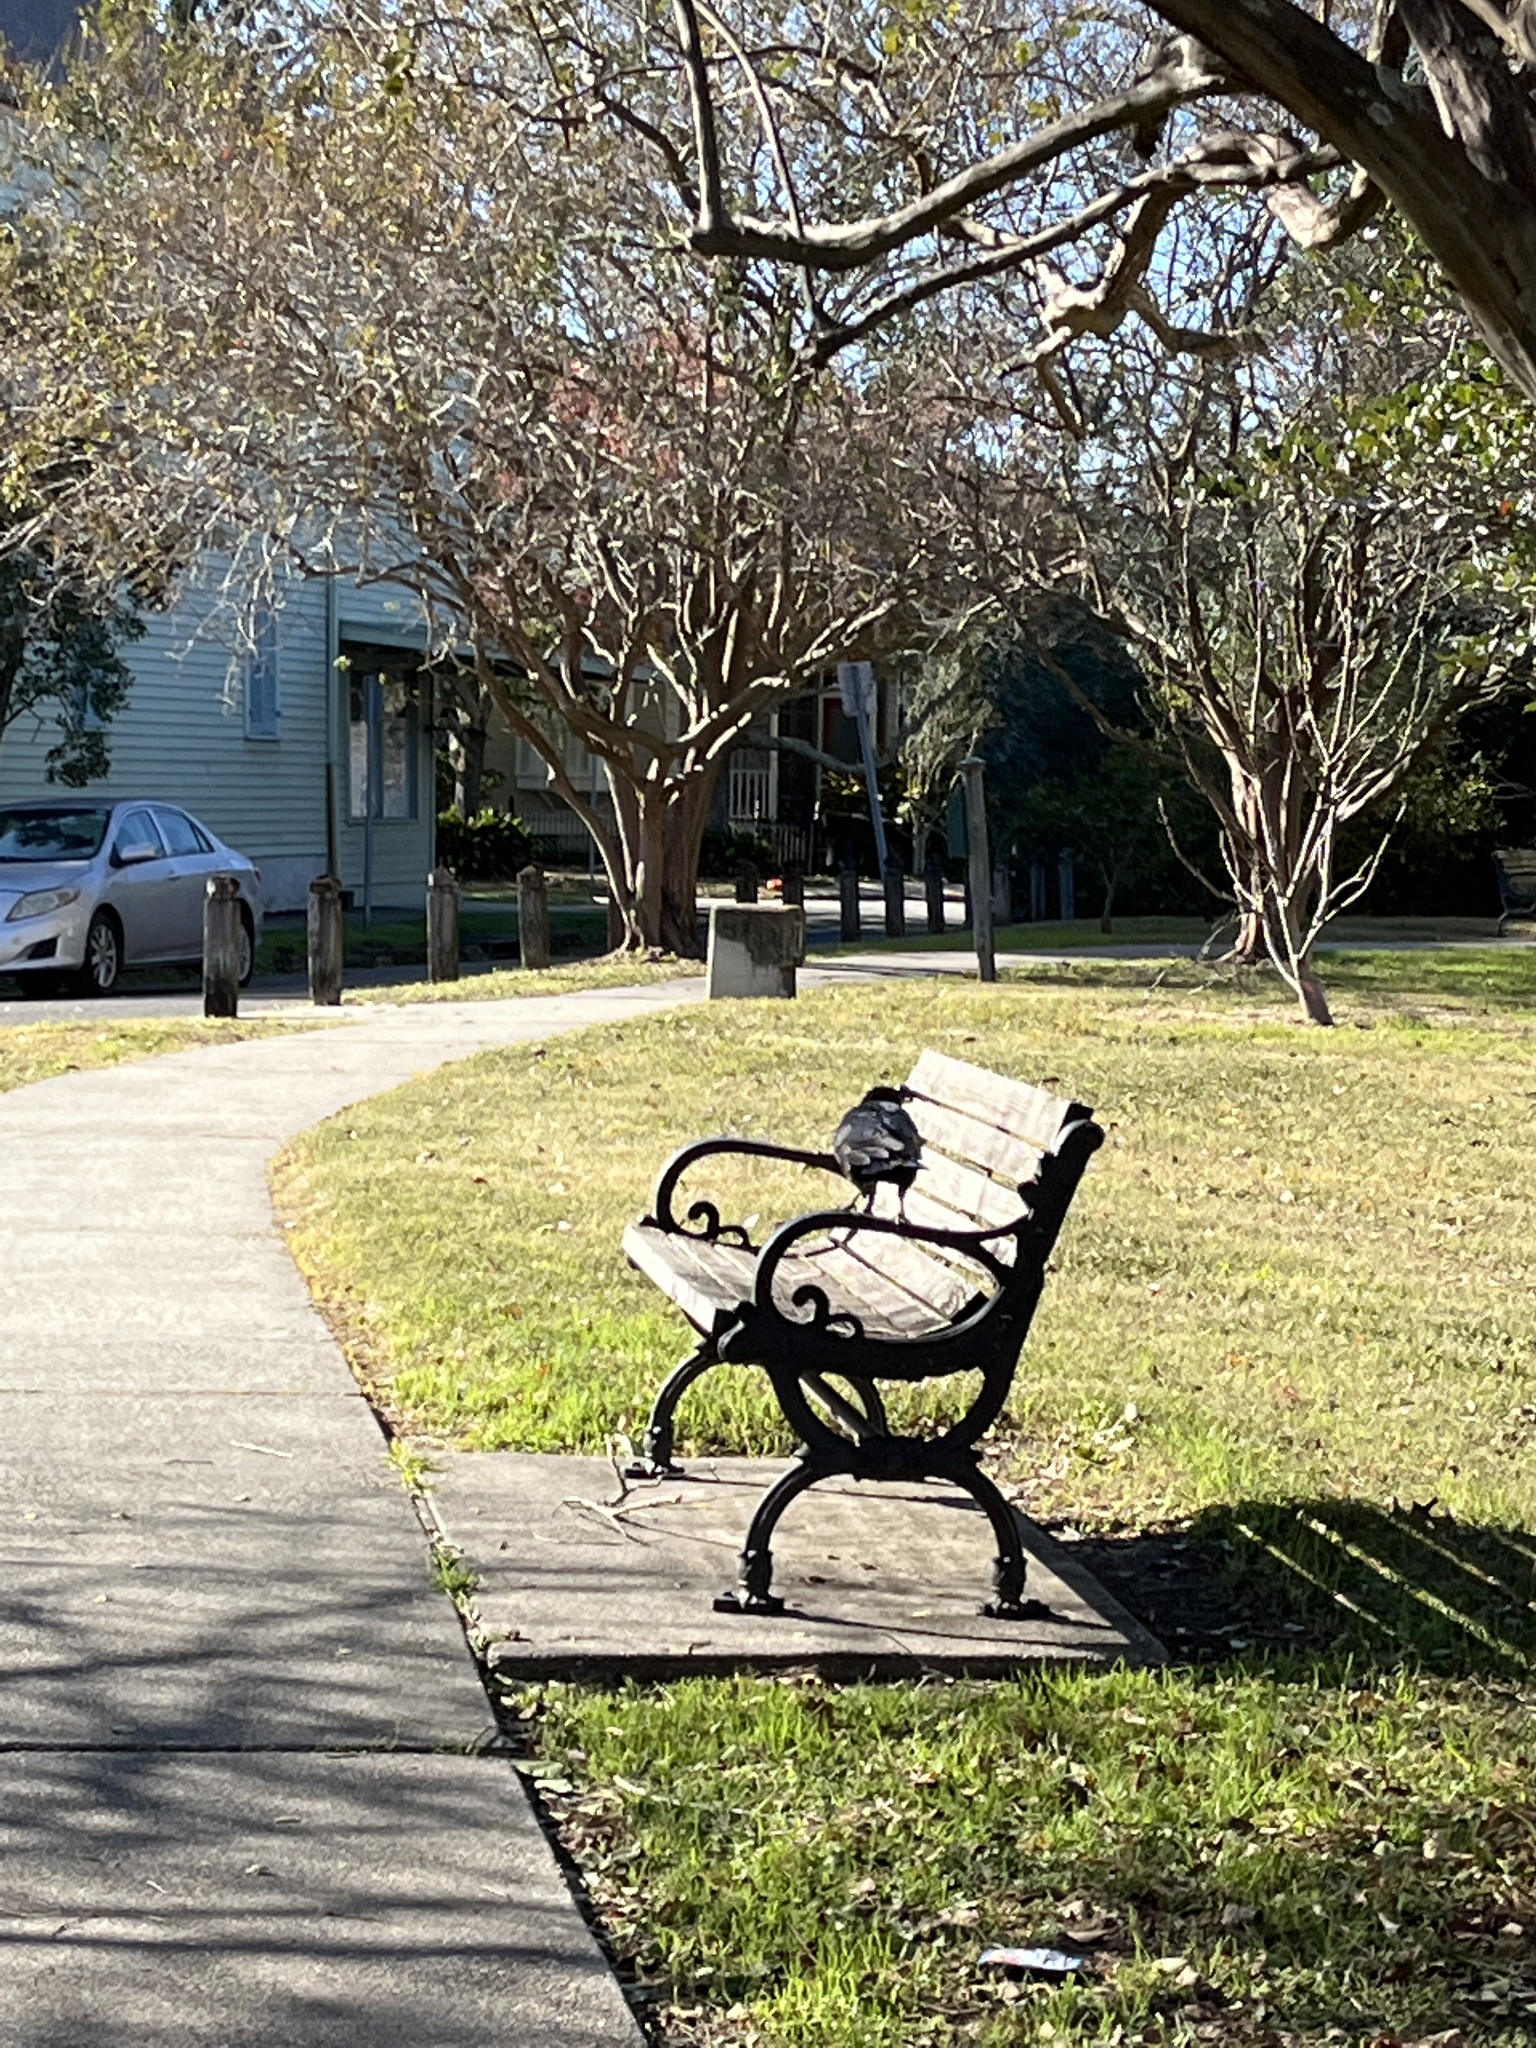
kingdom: Animalia
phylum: Chordata
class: Aves
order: Passeriformes
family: Corvidae
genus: Corvus
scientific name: Corvus brachyrhynchos
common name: American crow
